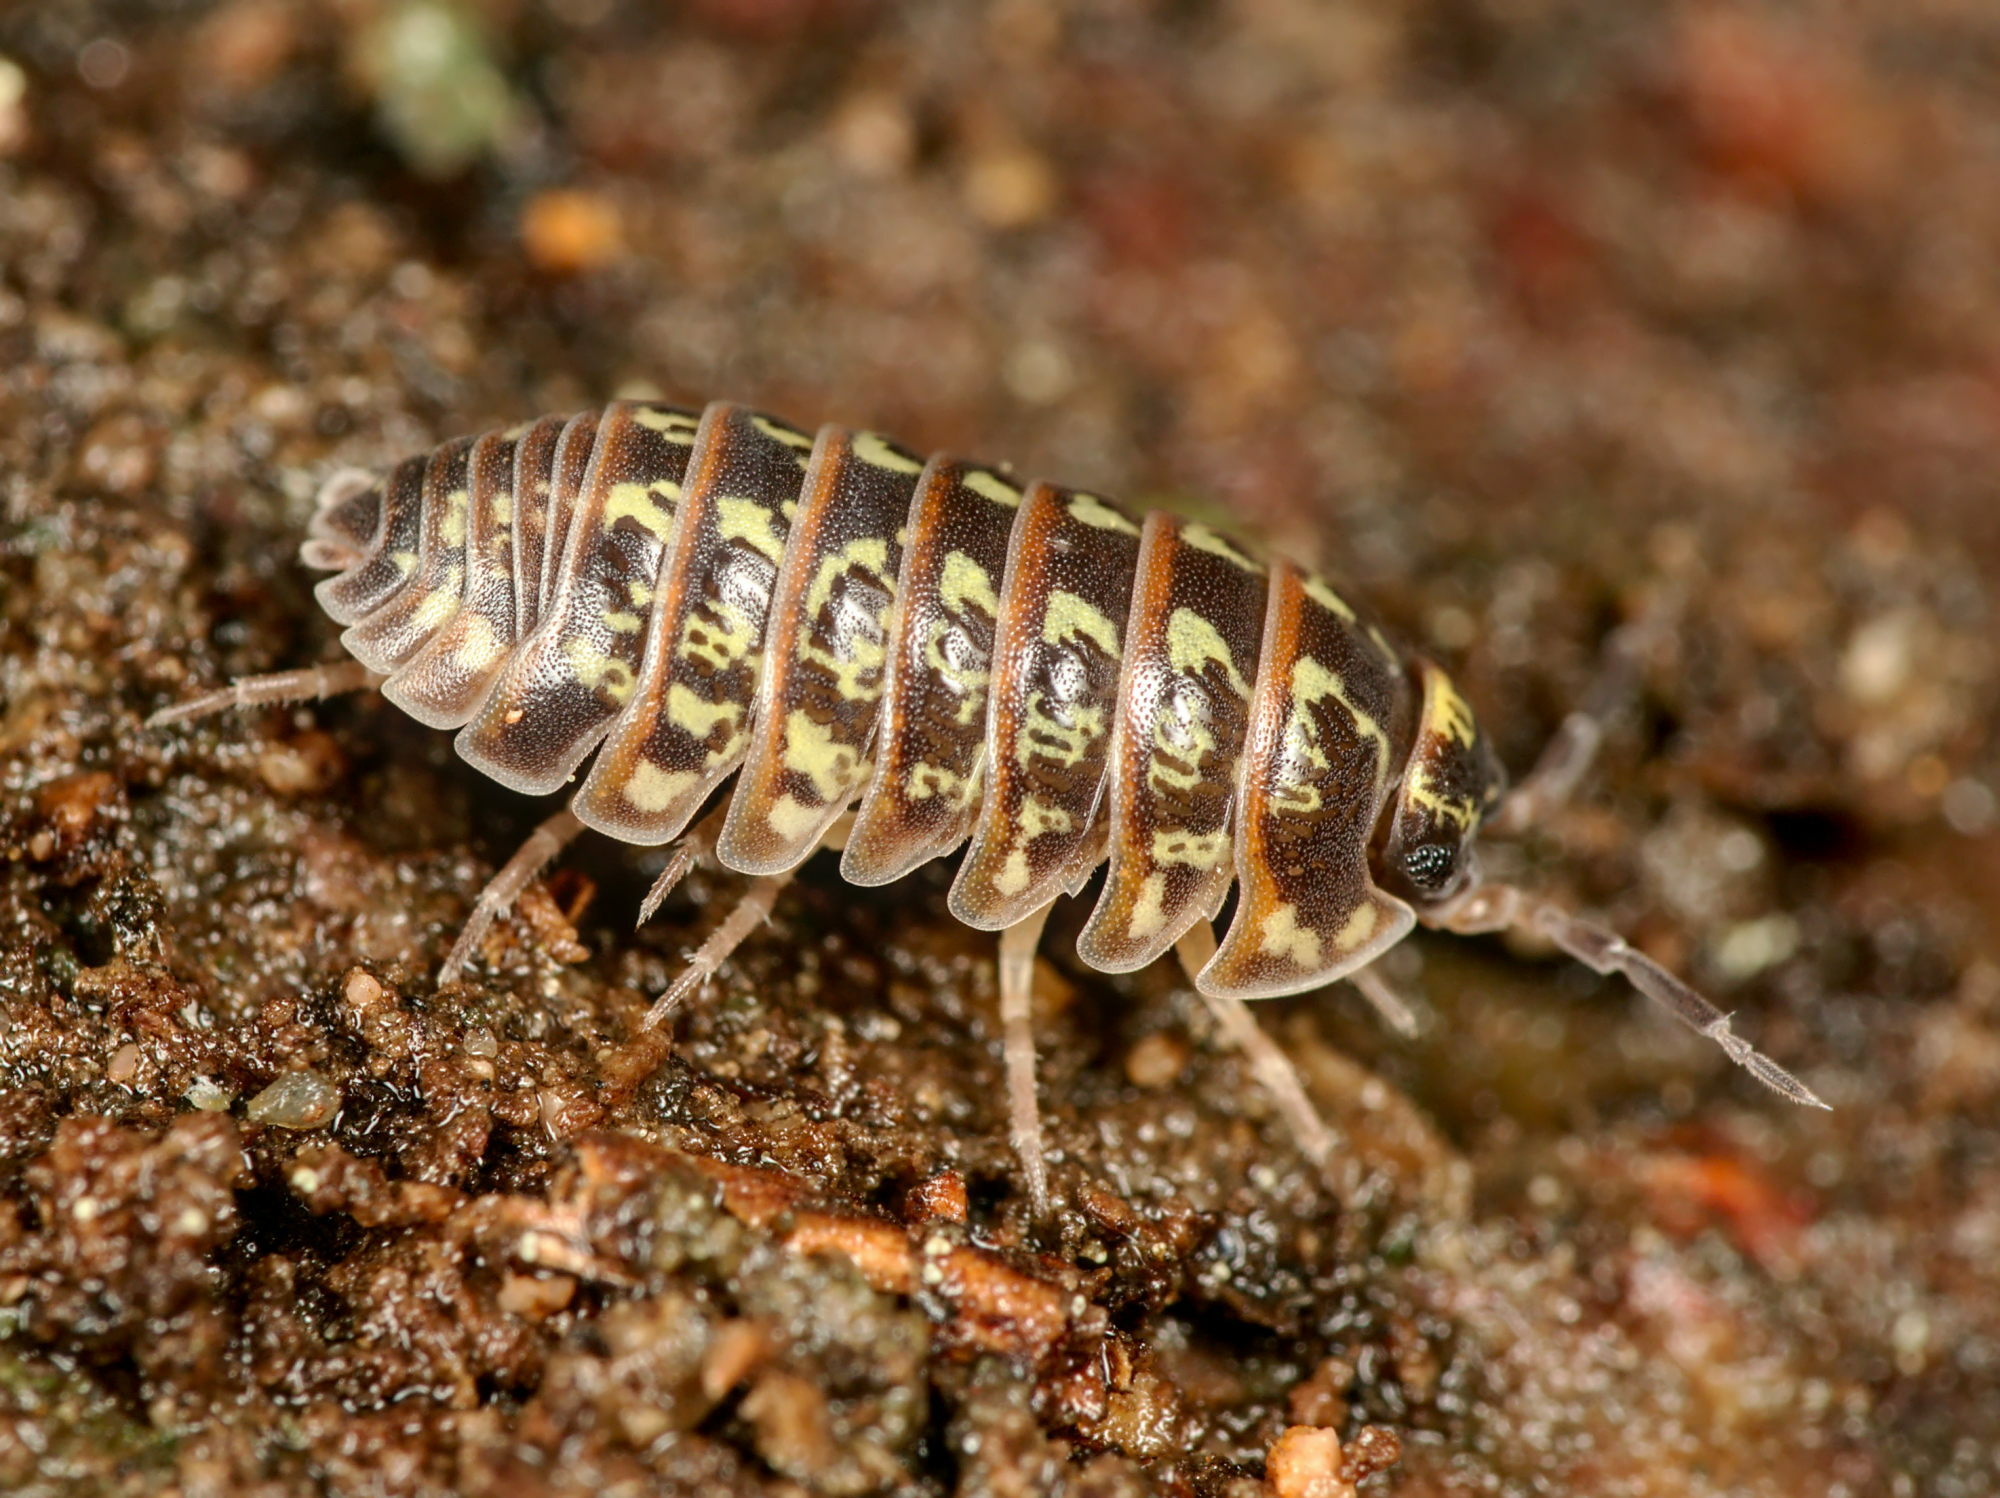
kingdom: Animalia
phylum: Arthropoda
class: Malacostraca
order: Isopoda
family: Armadillidiidae
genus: Armadillidium
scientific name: Armadillidium pictum
